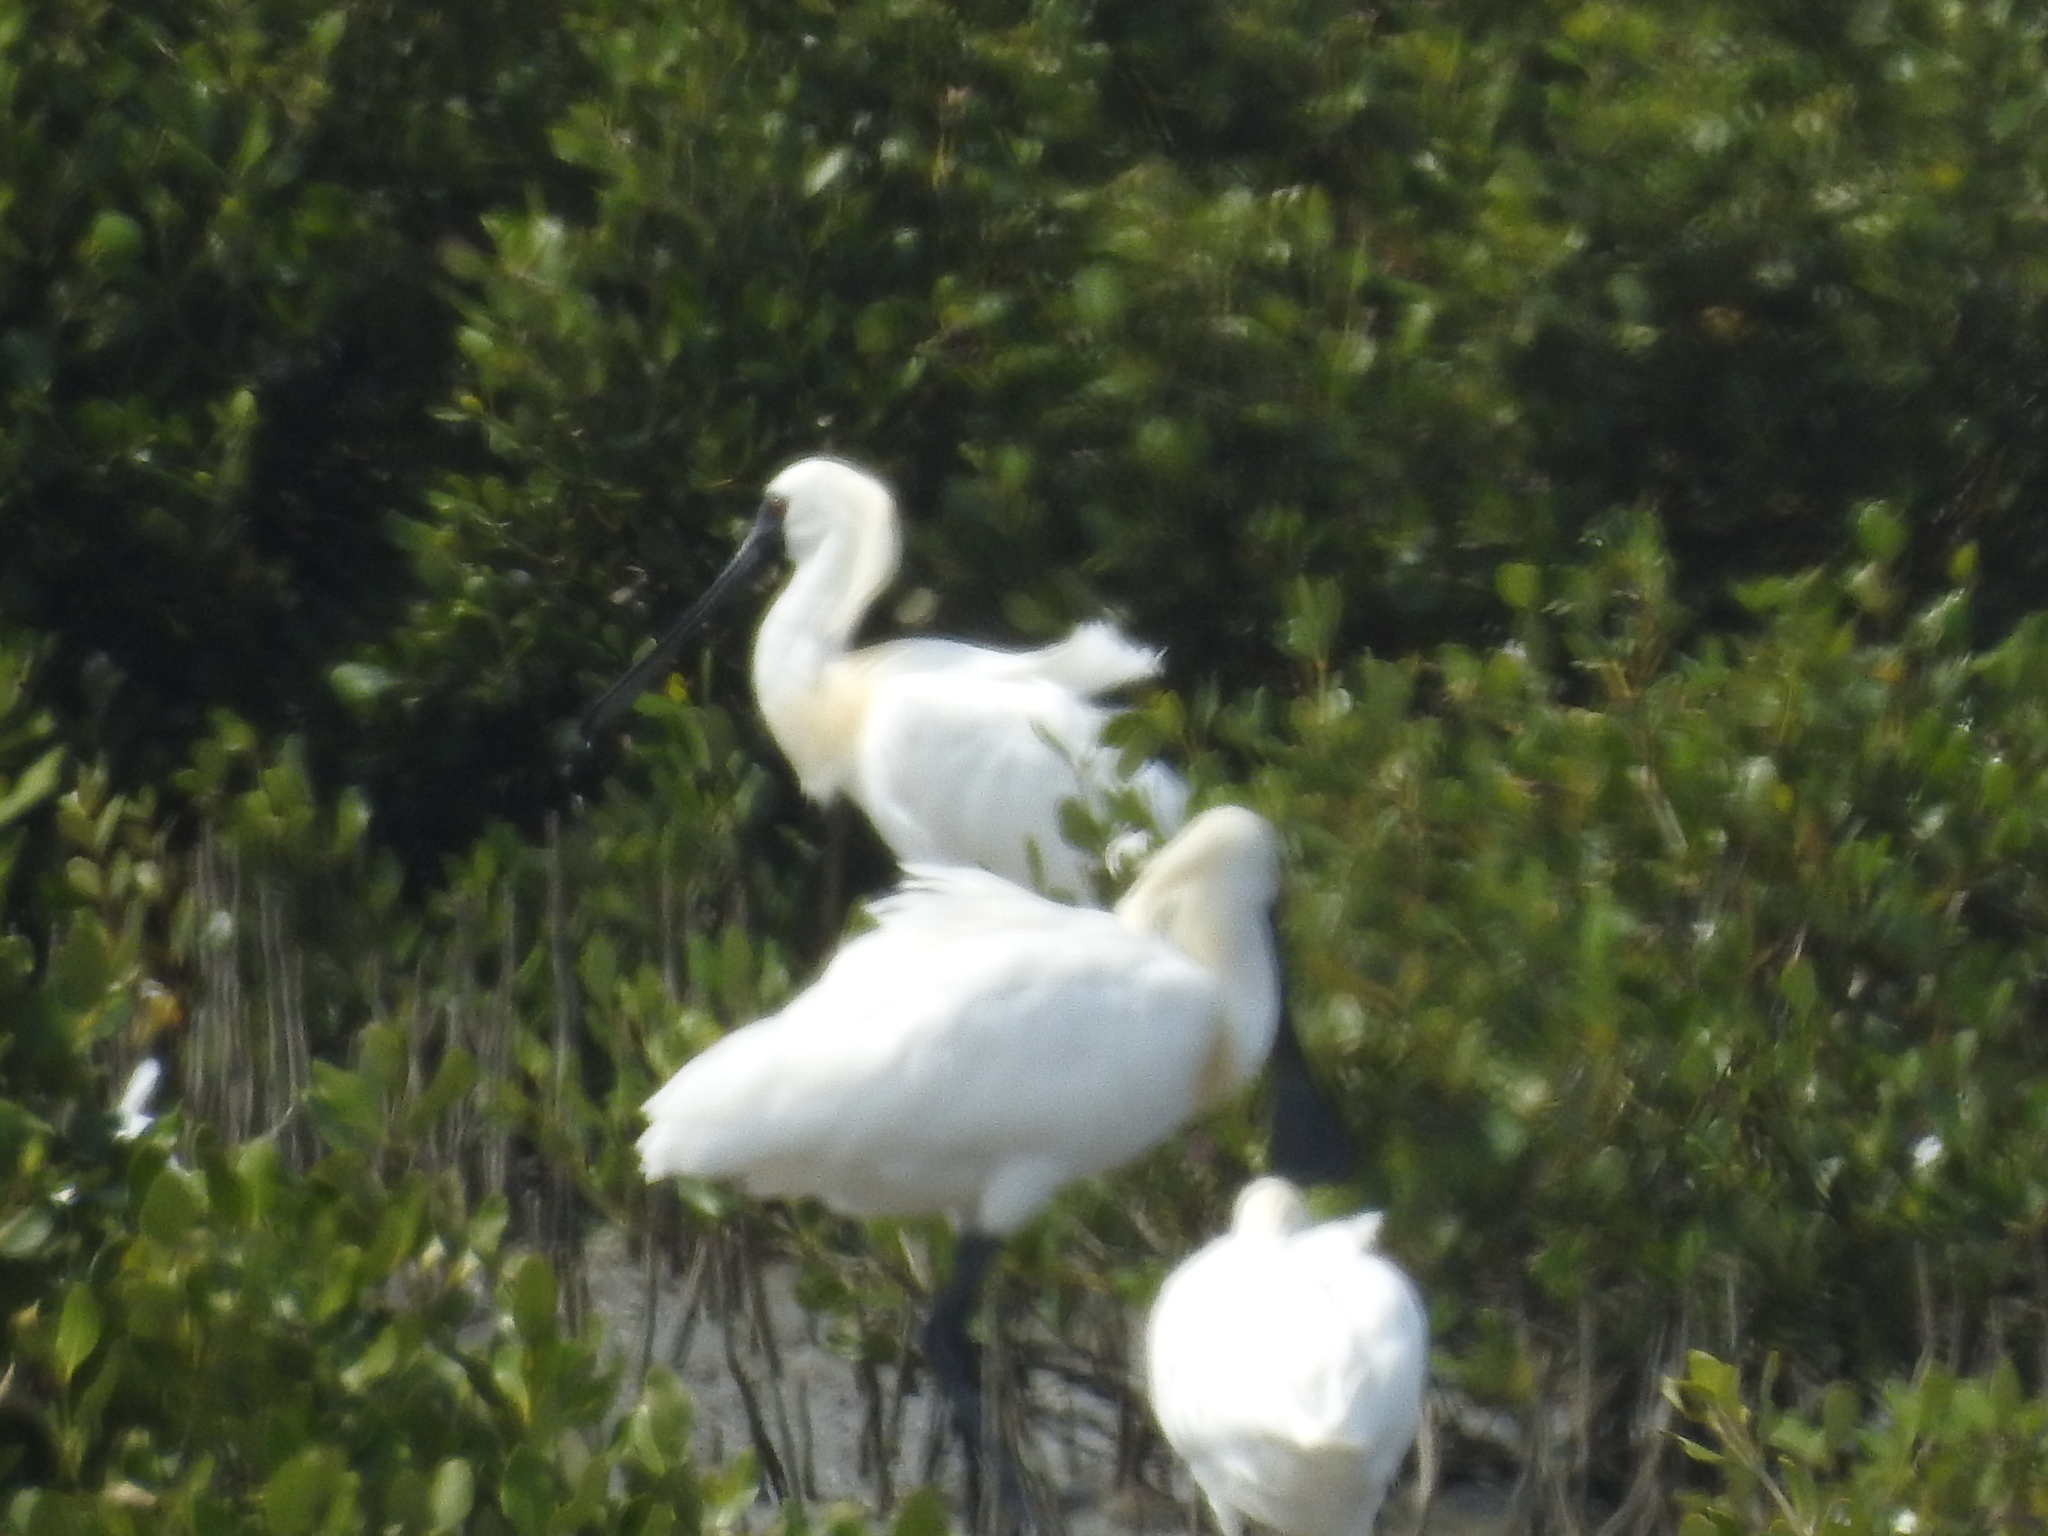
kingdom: Animalia
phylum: Chordata
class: Aves
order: Pelecaniformes
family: Threskiornithidae
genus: Platalea
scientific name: Platalea minor
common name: Black-faced spoonbill
